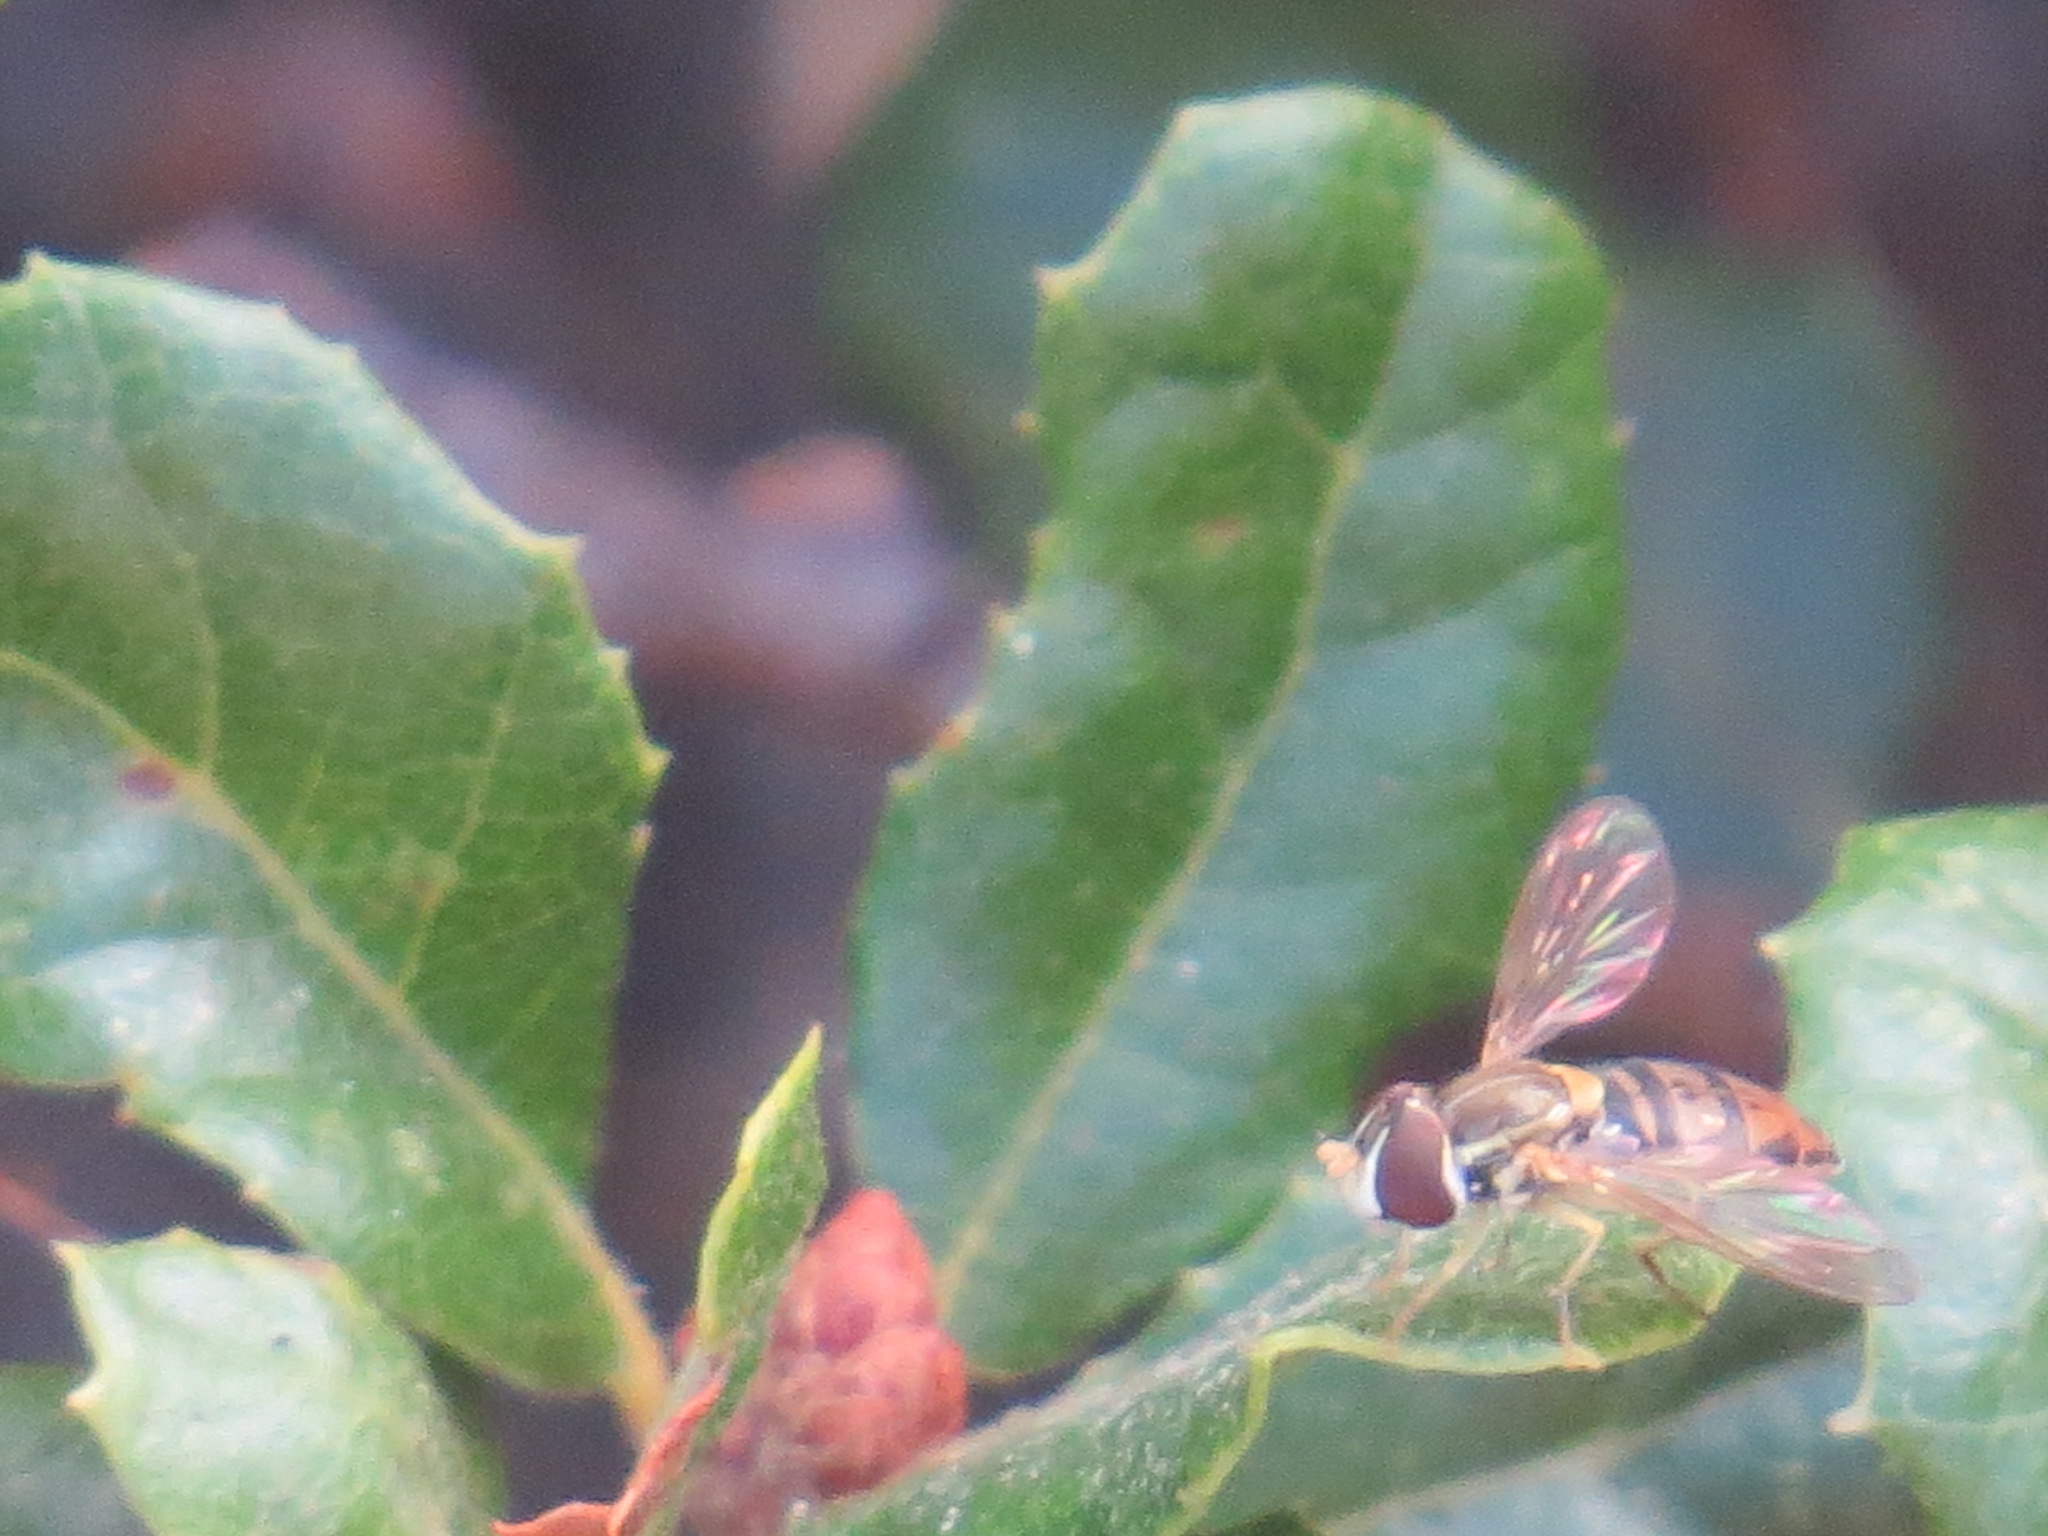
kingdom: Animalia
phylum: Arthropoda
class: Insecta
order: Diptera
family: Syrphidae
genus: Toxomerus
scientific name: Toxomerus marginatus
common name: Syrphid fly
